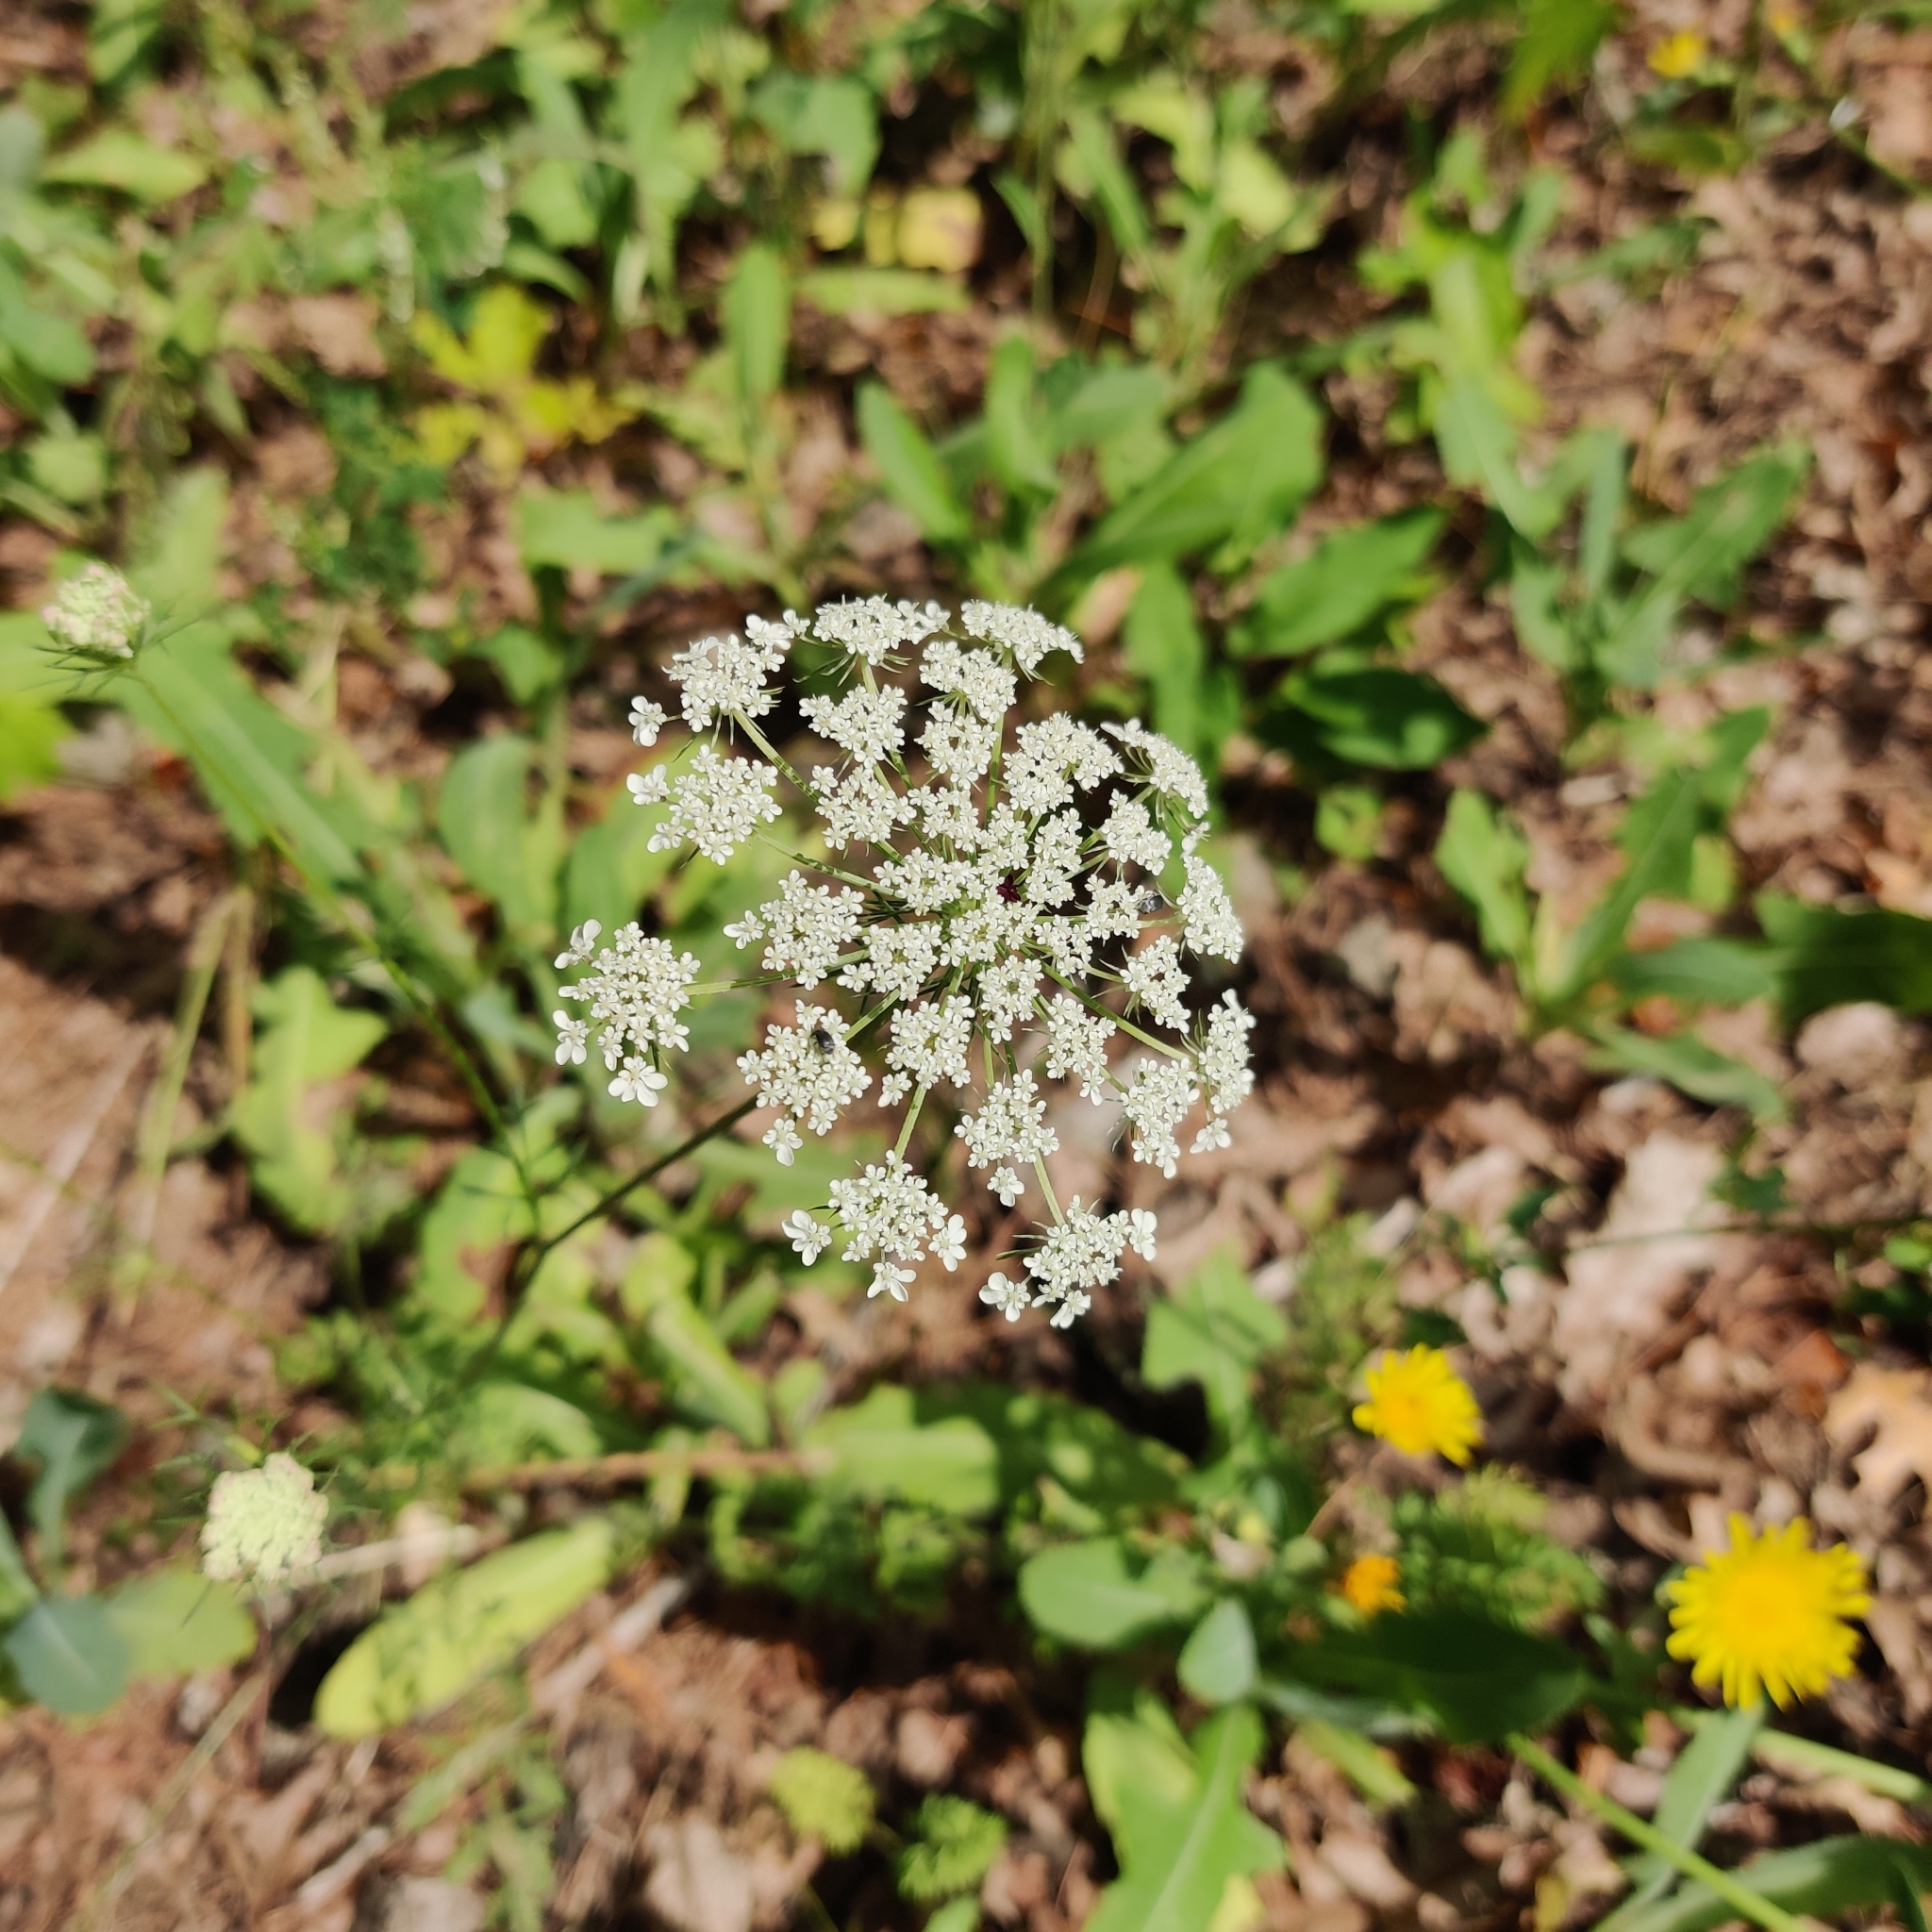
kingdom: Plantae
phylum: Tracheophyta
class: Magnoliopsida
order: Apiales
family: Apiaceae
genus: Daucus
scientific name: Daucus carota
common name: Wild carrot
